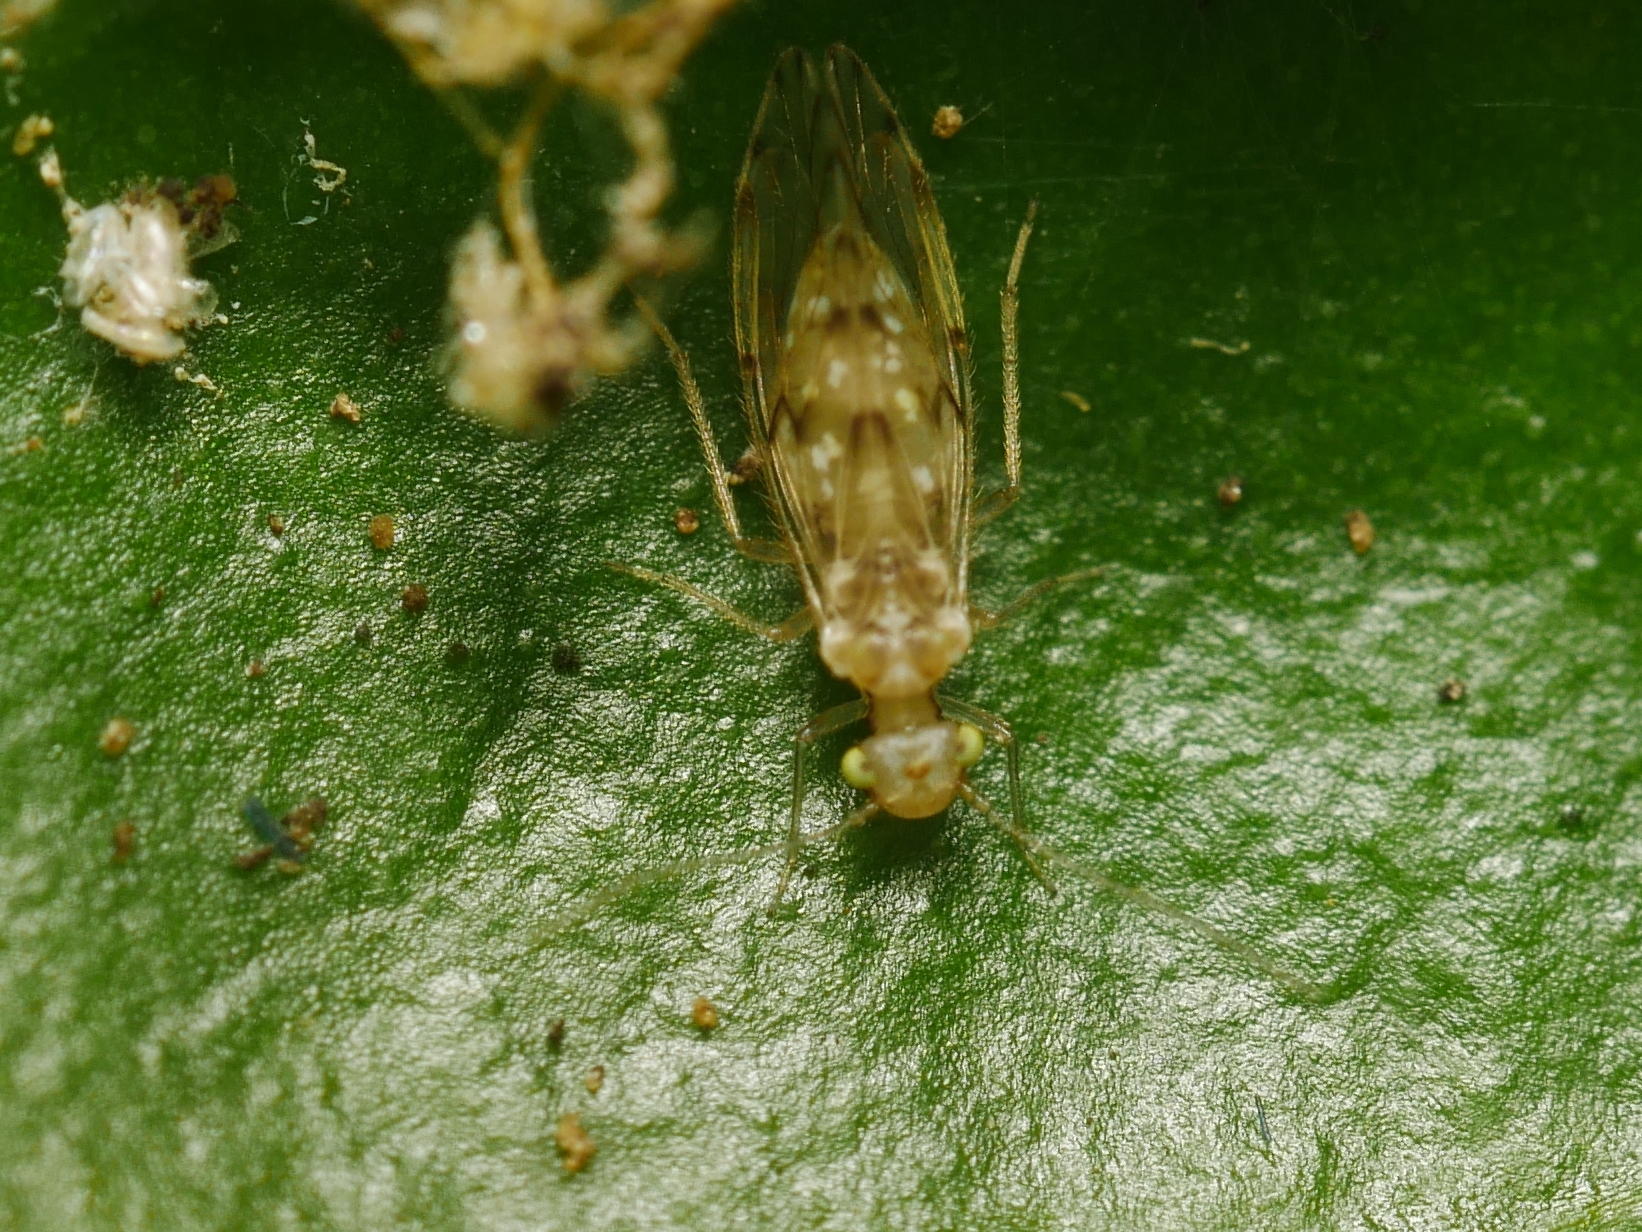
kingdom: Animalia
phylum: Arthropoda
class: Insecta
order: Psocodea
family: Trichopsocidae
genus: Trichopsocus
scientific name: Trichopsocus clarus
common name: Lash-faced psocid
